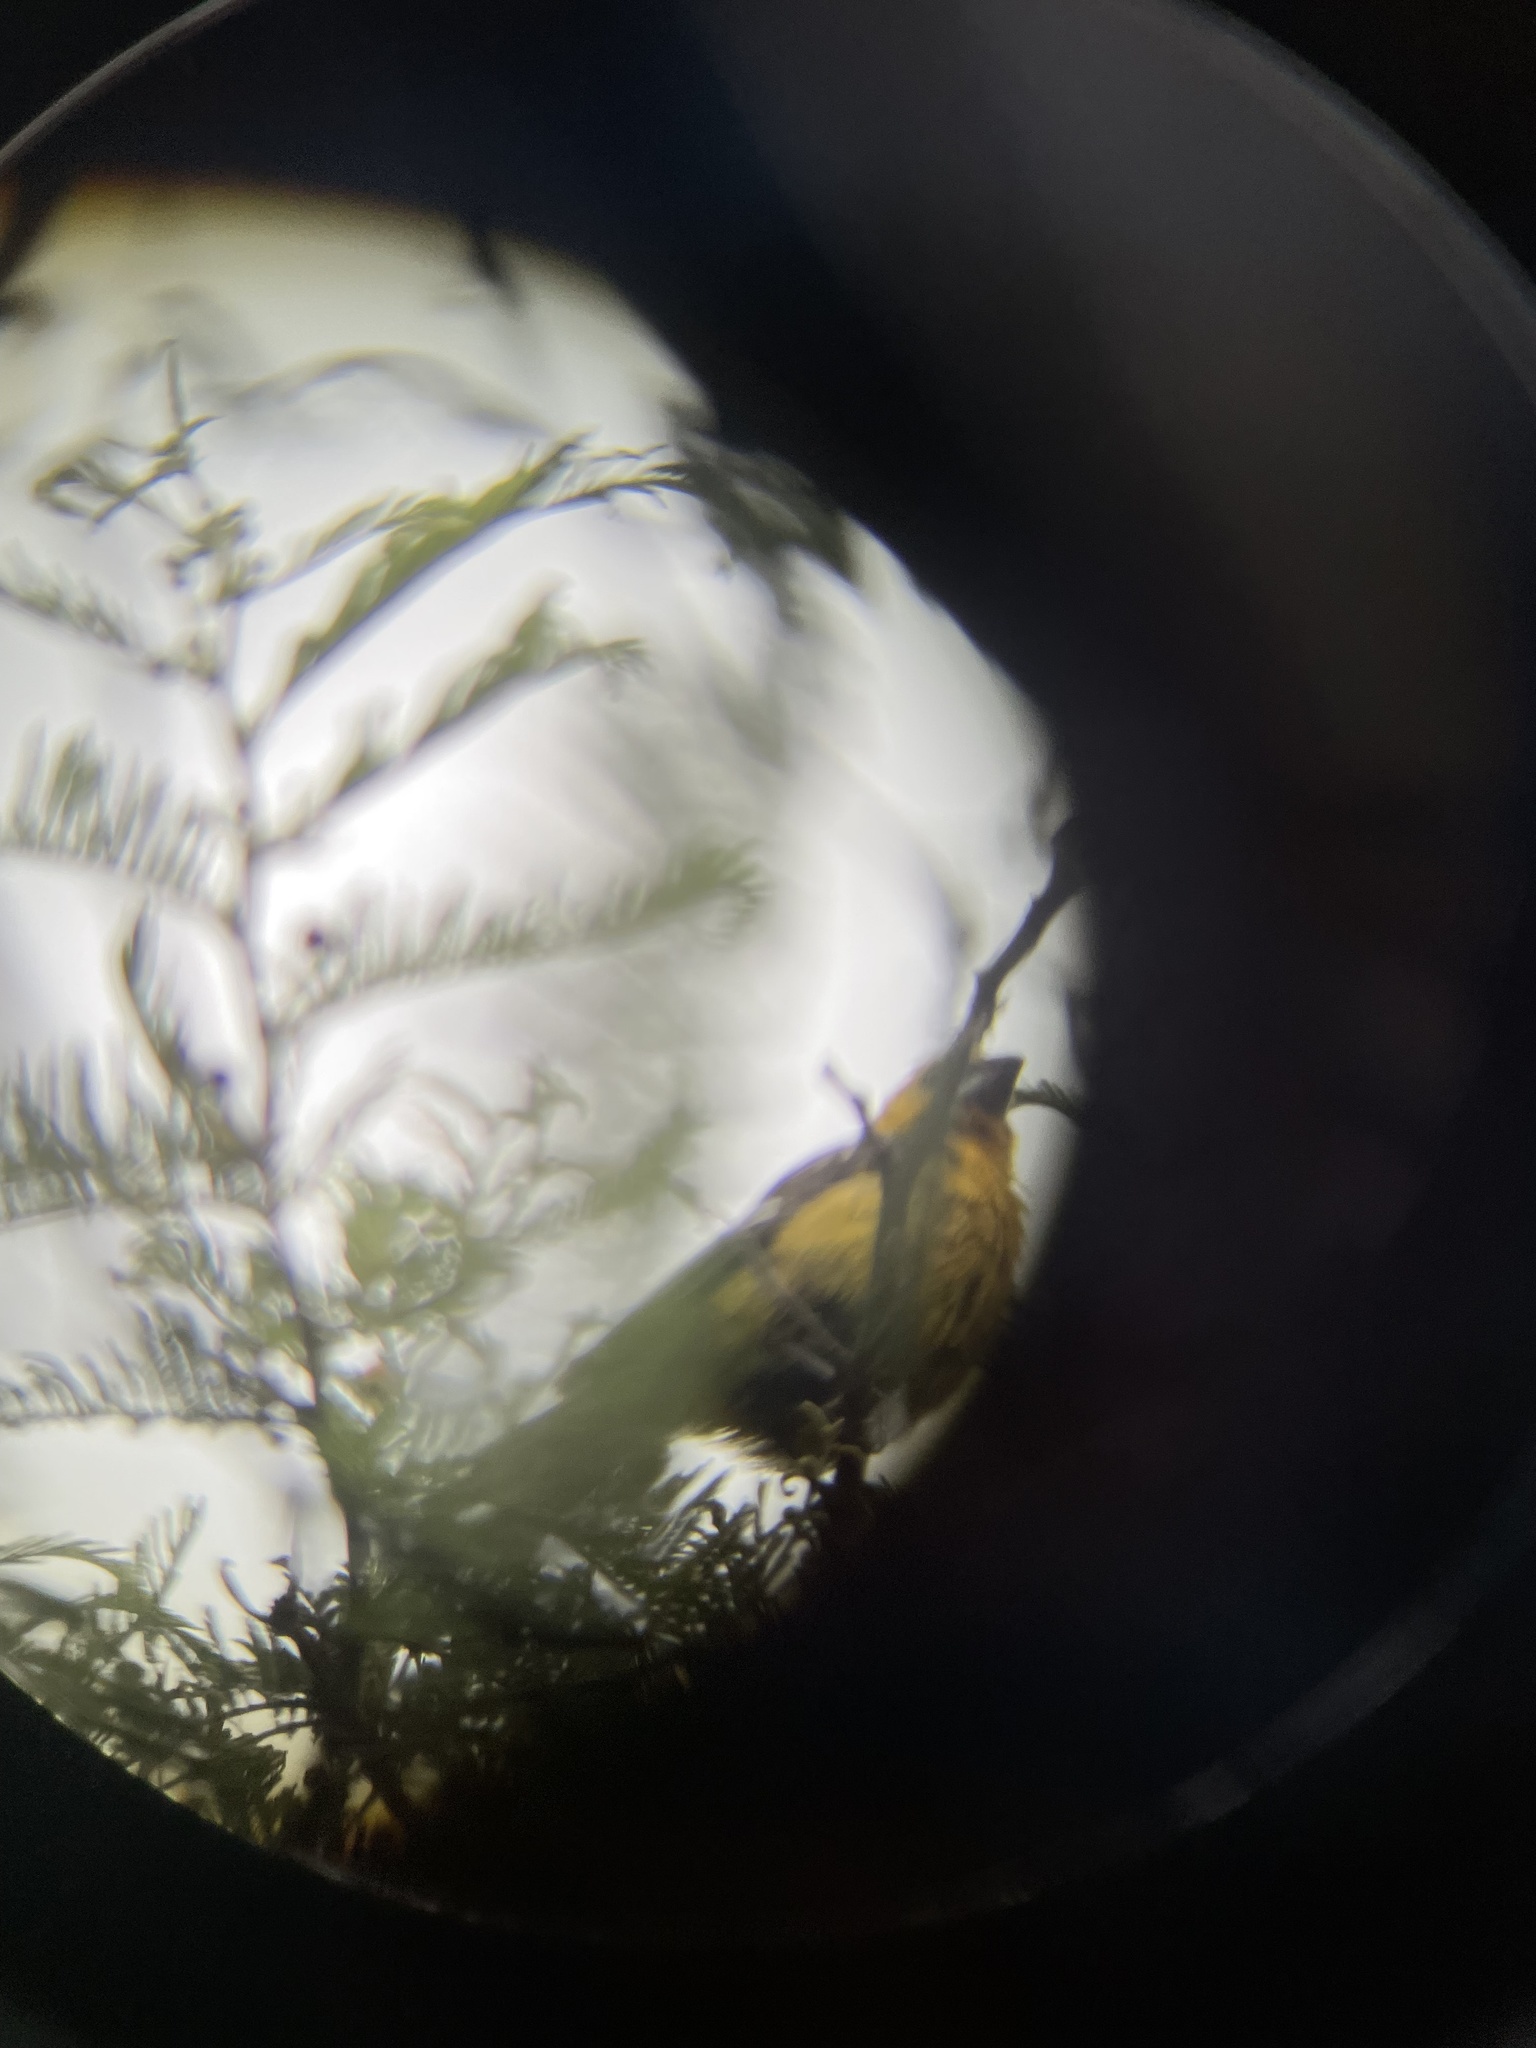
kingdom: Animalia
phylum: Chordata
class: Aves
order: Passeriformes
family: Cardinalidae
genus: Pheucticus
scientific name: Pheucticus chrysogaster
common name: Golden grosbeak
